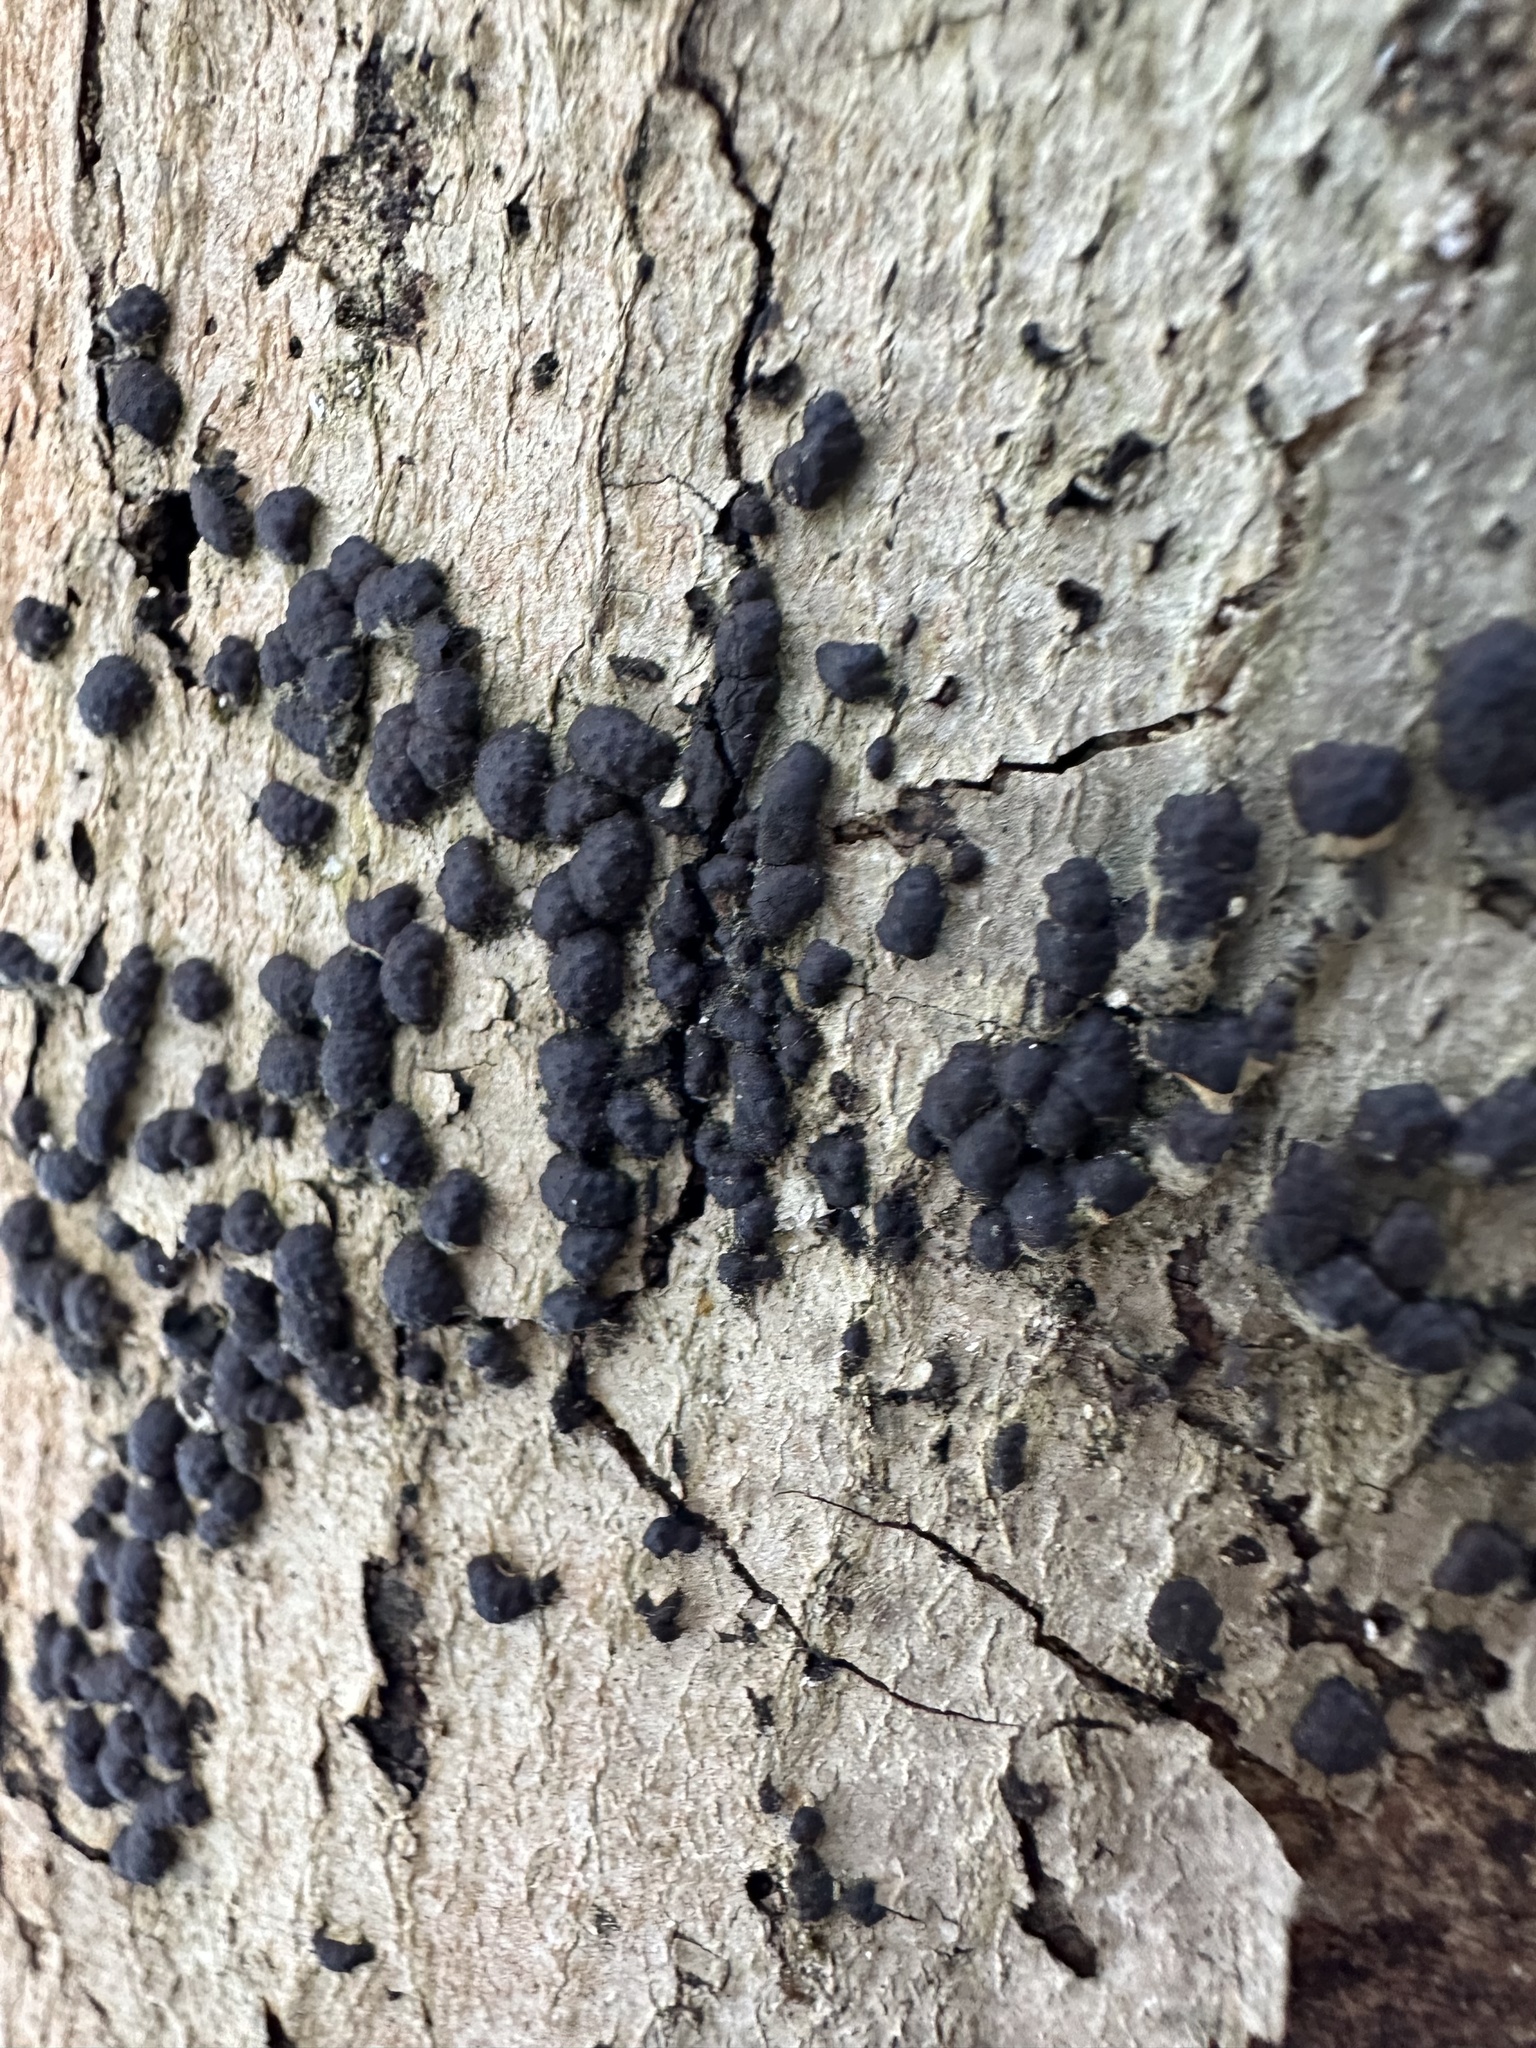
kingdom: Fungi
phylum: Ascomycota
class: Sordariomycetes
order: Xylariales
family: Hypoxylaceae
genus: Jackrogersella
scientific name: Jackrogersella cohaerens
